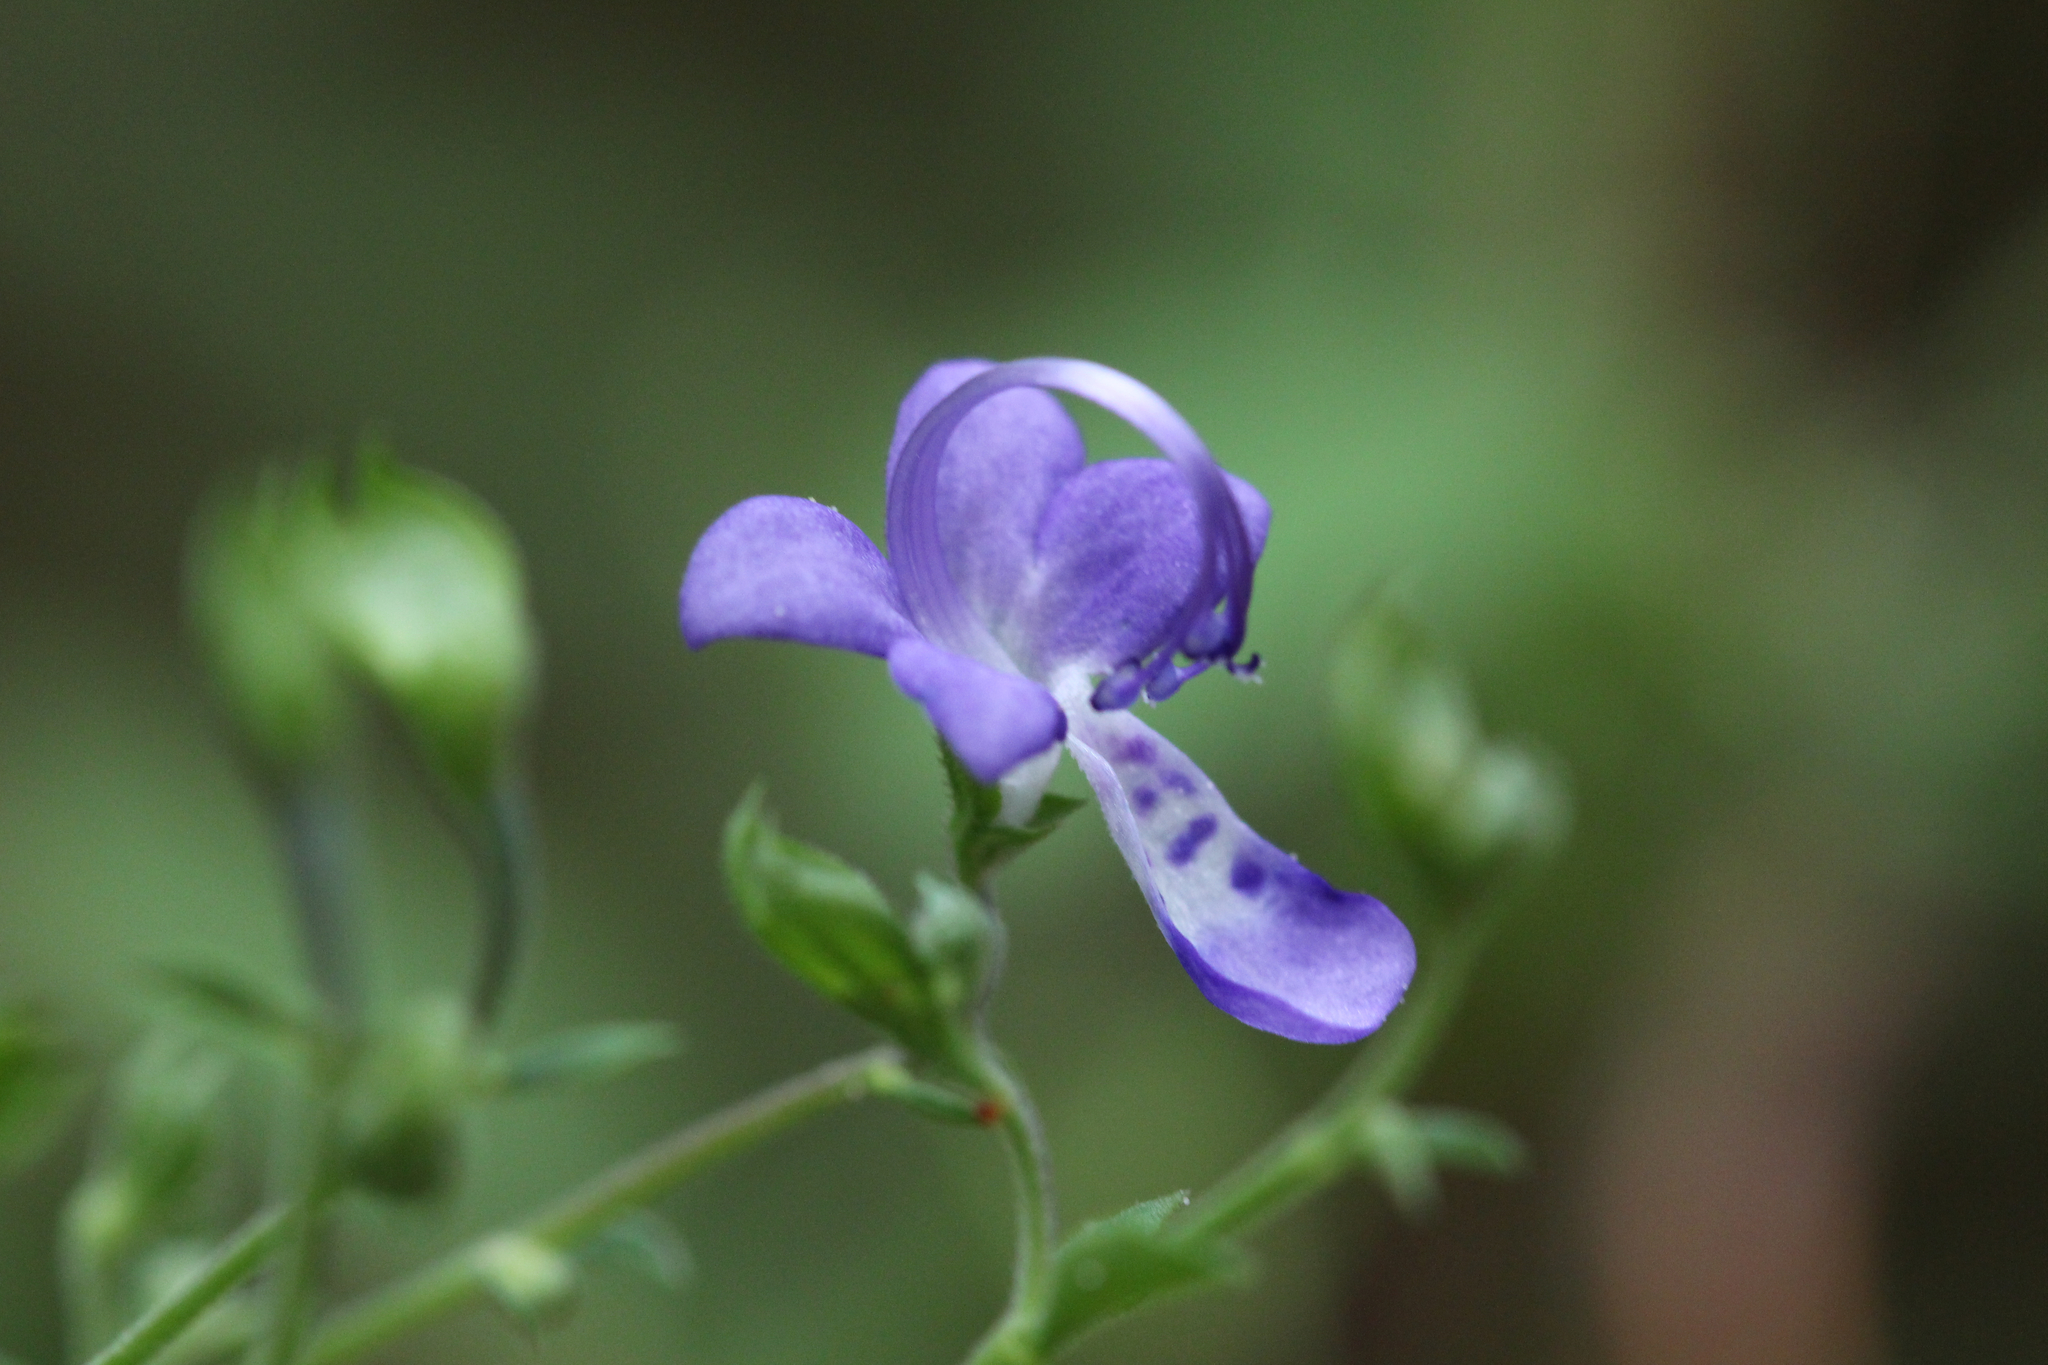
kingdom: Plantae
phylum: Tracheophyta
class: Magnoliopsida
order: Lamiales
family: Lamiaceae
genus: Trichostema
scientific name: Trichostema fruticosum
